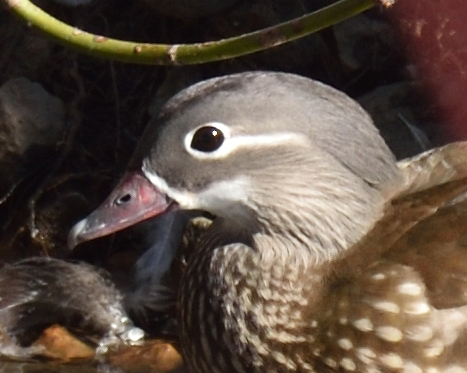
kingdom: Animalia
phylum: Chordata
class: Aves
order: Anseriformes
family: Anatidae
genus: Aix
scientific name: Aix galericulata
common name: Mandarin duck
